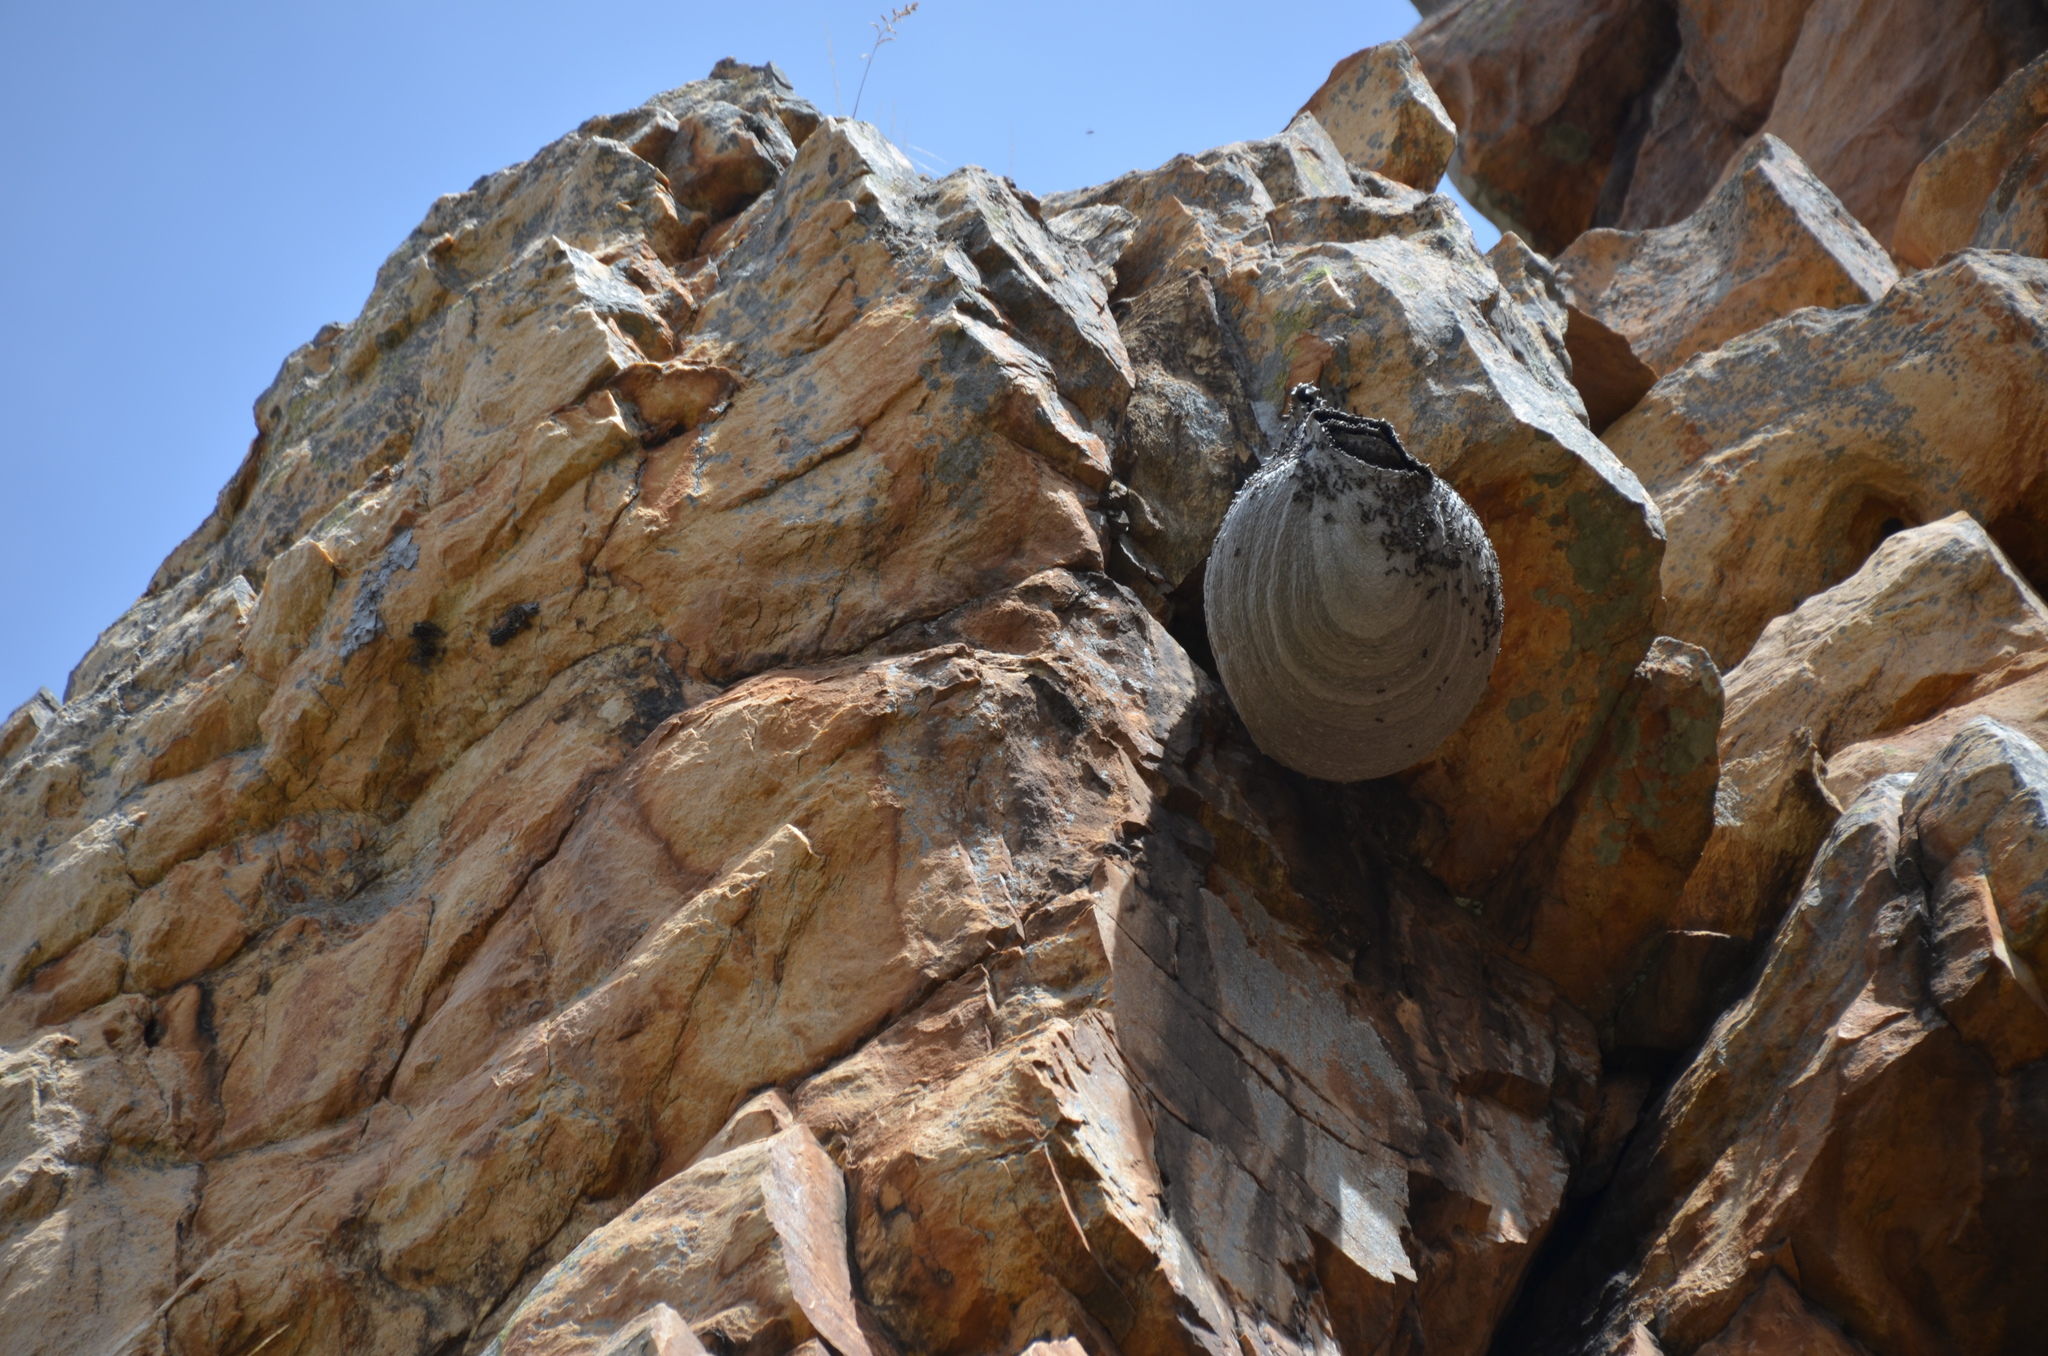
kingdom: Animalia
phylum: Arthropoda
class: Insecta
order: Hymenoptera
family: Eumenidae
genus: Polybia
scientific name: Polybia scutellaris
